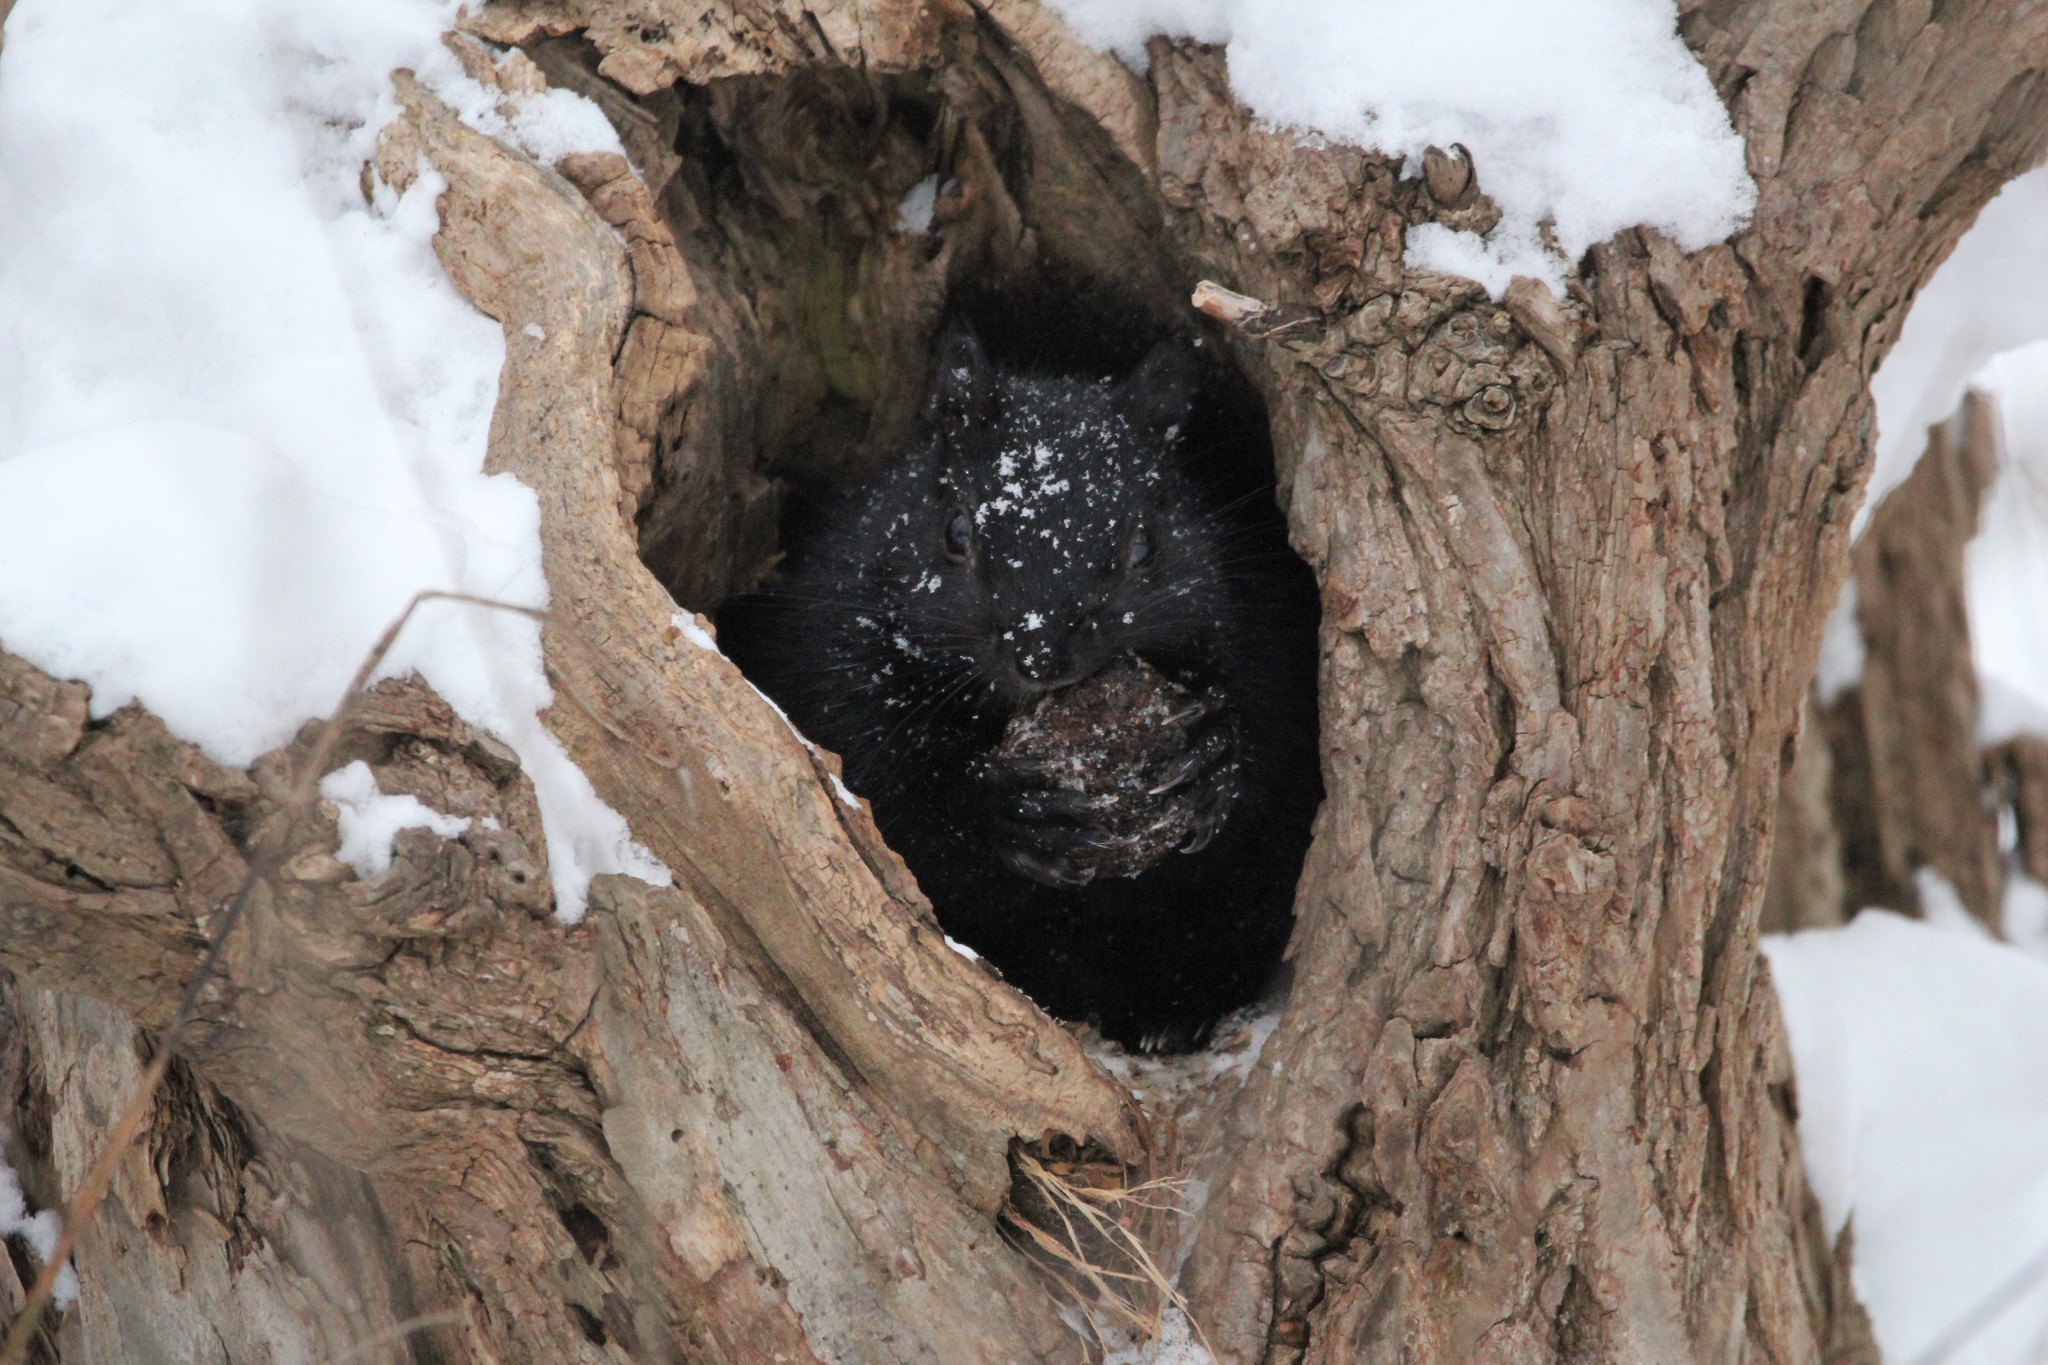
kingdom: Animalia
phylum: Chordata
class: Mammalia
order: Rodentia
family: Sciuridae
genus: Sciurus
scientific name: Sciurus carolinensis
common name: Eastern gray squirrel
